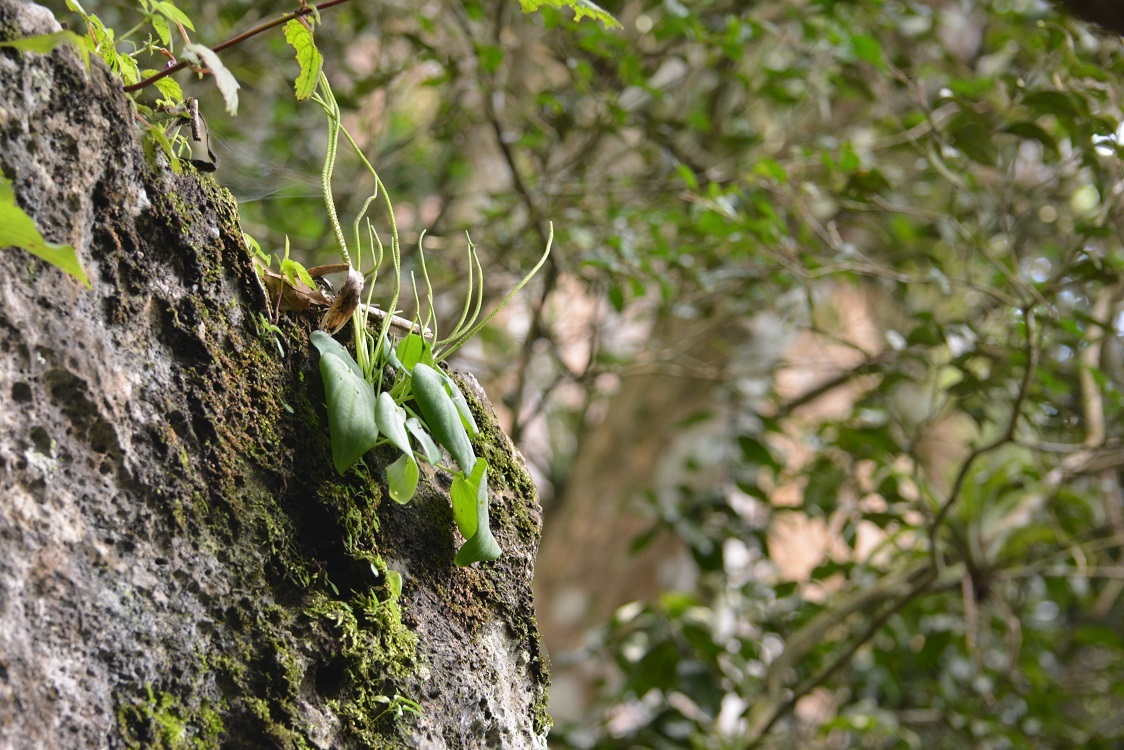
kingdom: Plantae
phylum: Tracheophyta
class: Magnoliopsida
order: Piperales
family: Piperaceae
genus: Peperomia
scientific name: Peperomia lanceolatopeltata
